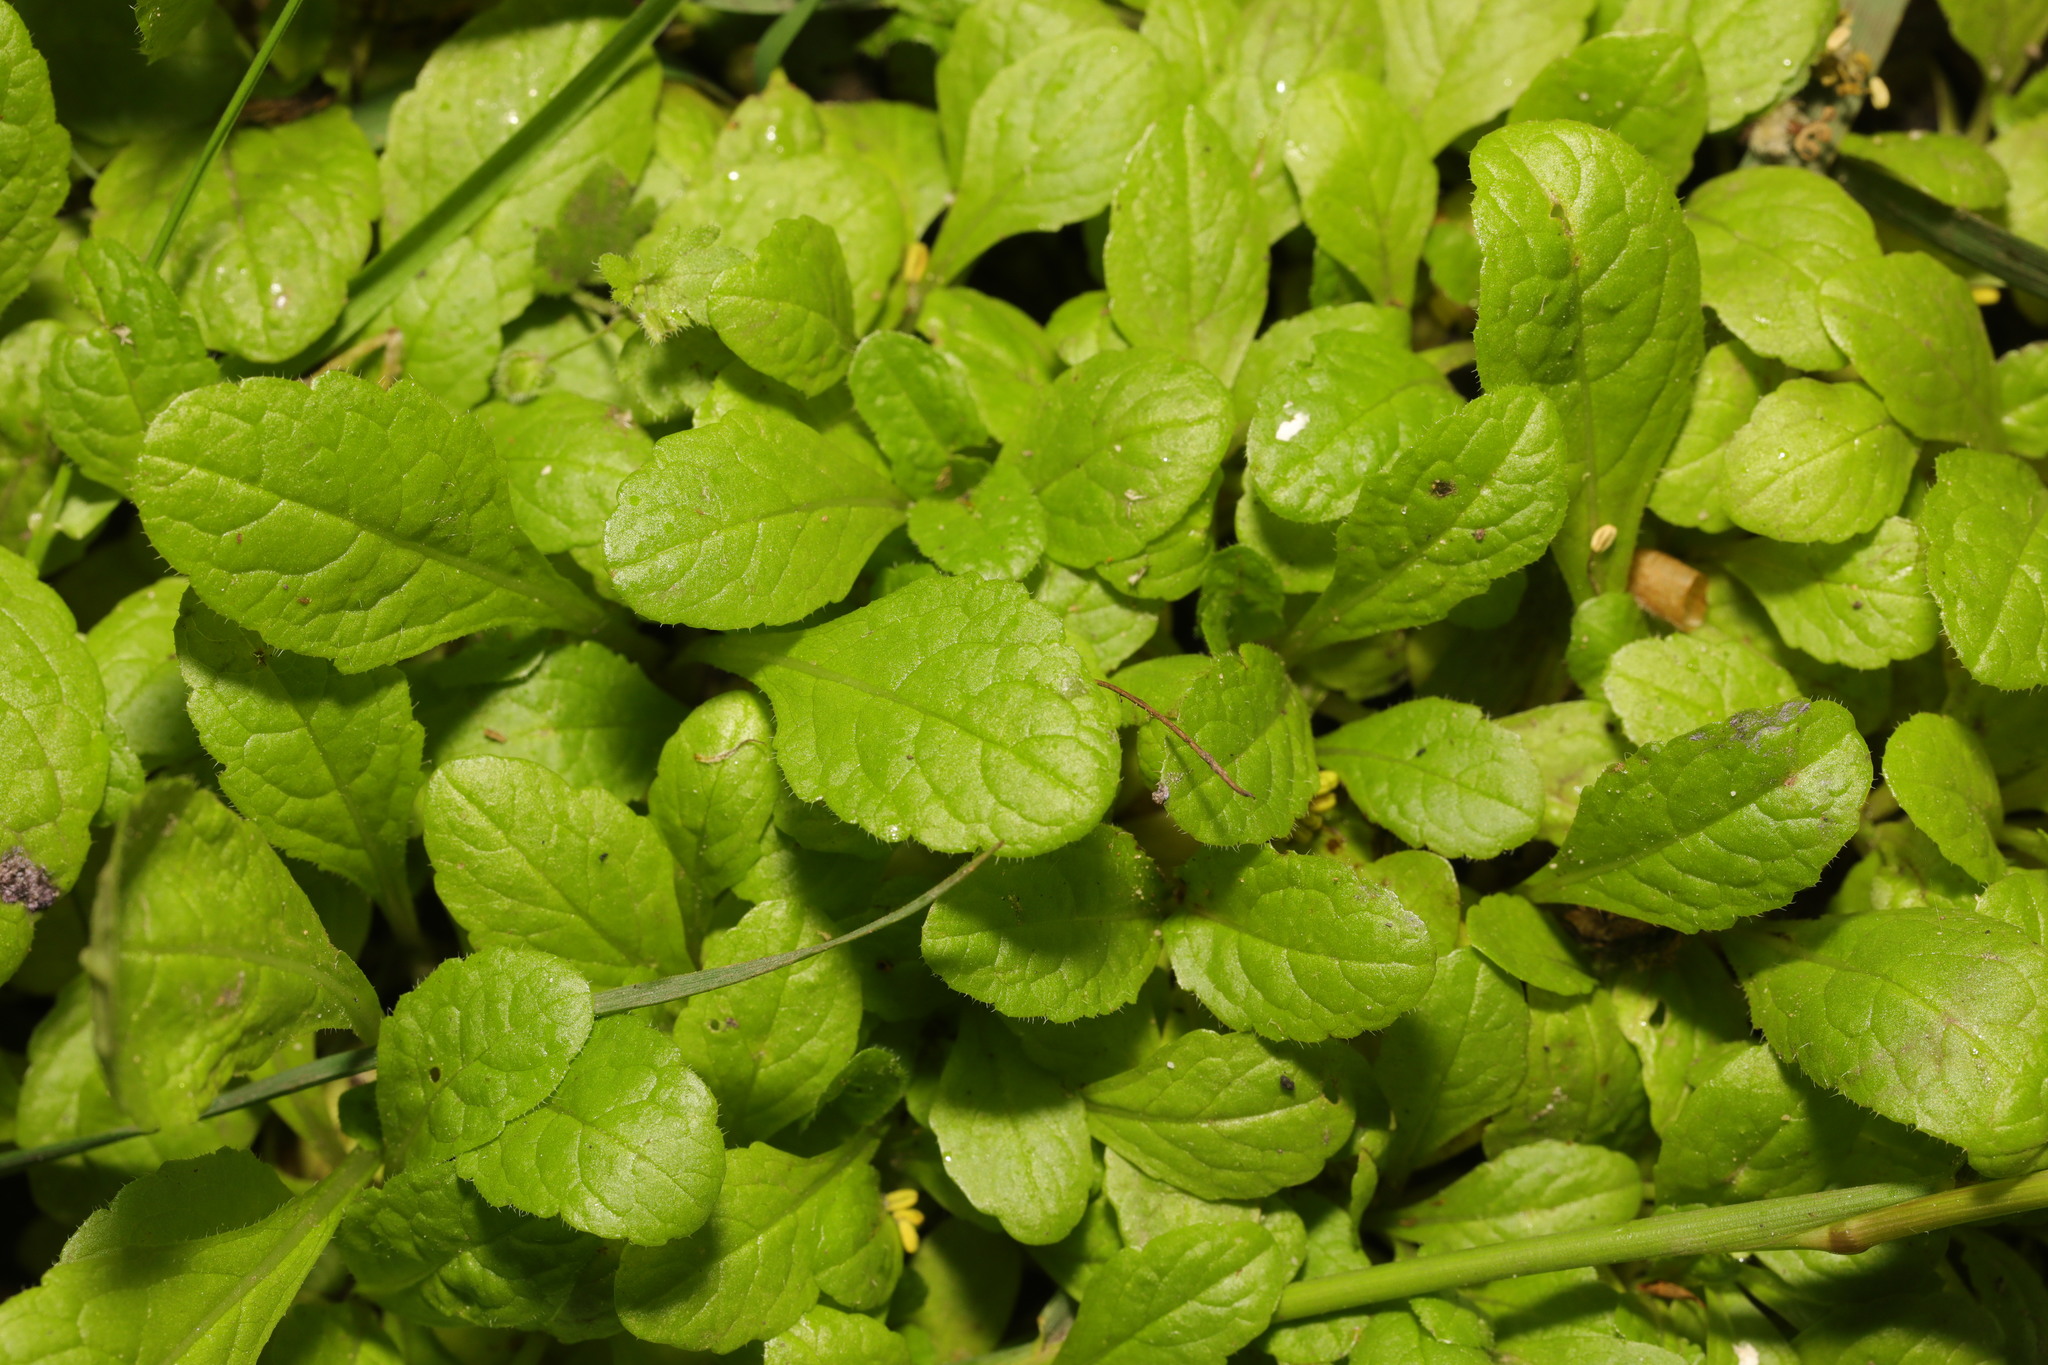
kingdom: Plantae
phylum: Tracheophyta
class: Magnoliopsida
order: Lamiales
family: Lamiaceae
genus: Ajuga
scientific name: Ajuga reptans
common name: Bugle
